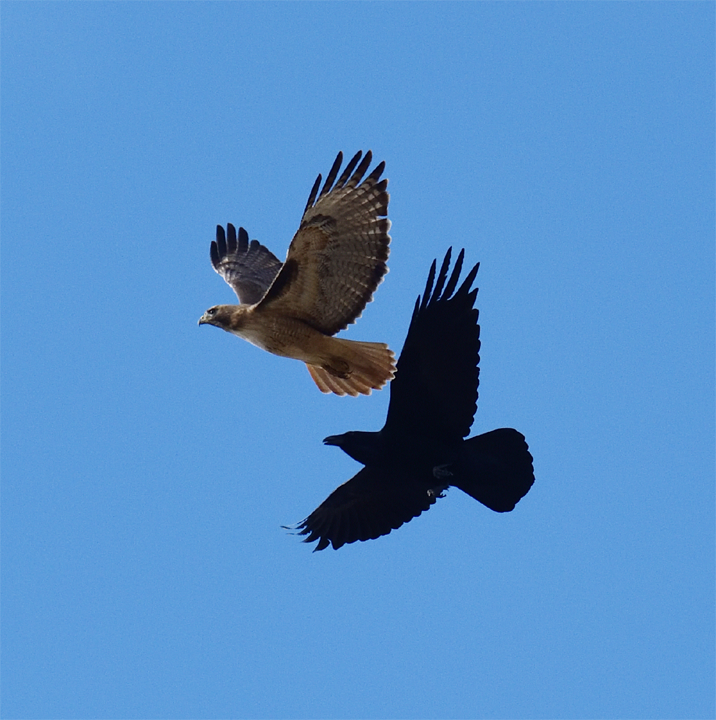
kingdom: Animalia
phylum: Chordata
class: Aves
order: Passeriformes
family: Corvidae
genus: Corvus
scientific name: Corvus corax
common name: Common raven
